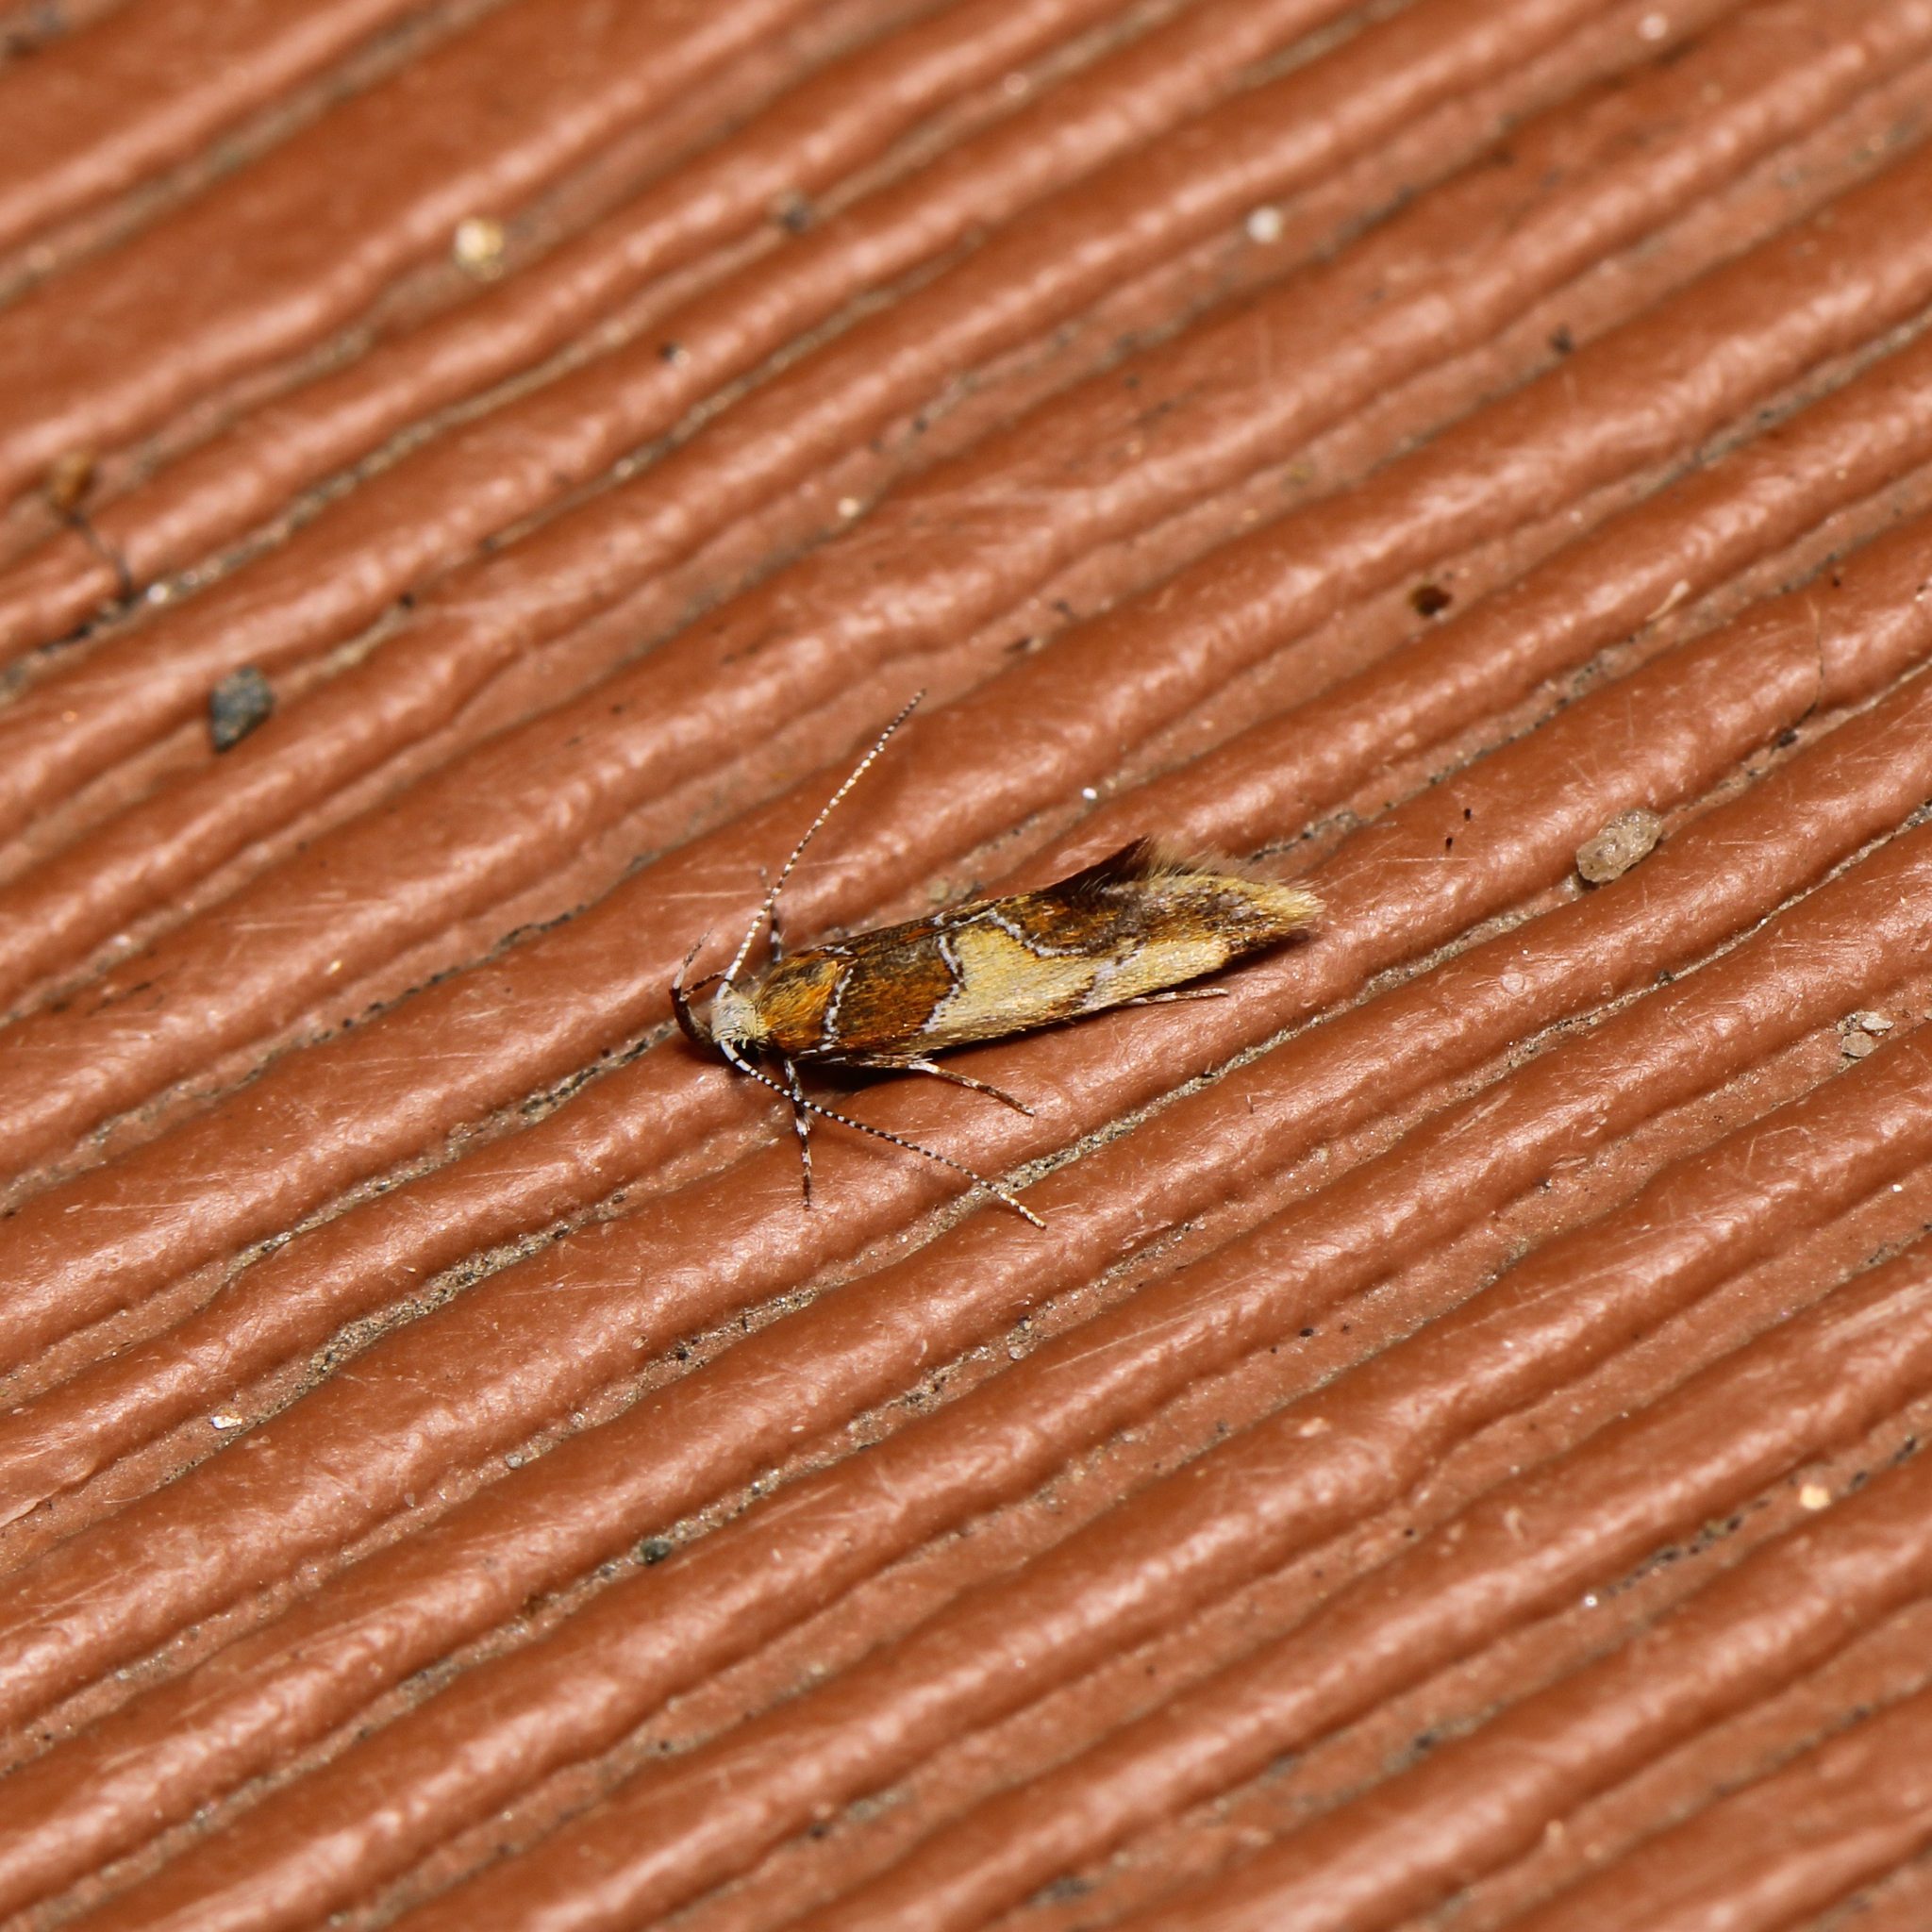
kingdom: Animalia
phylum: Arthropoda
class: Insecta
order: Lepidoptera
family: Oecophoridae
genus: Callima
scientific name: Callima argenticinctella
